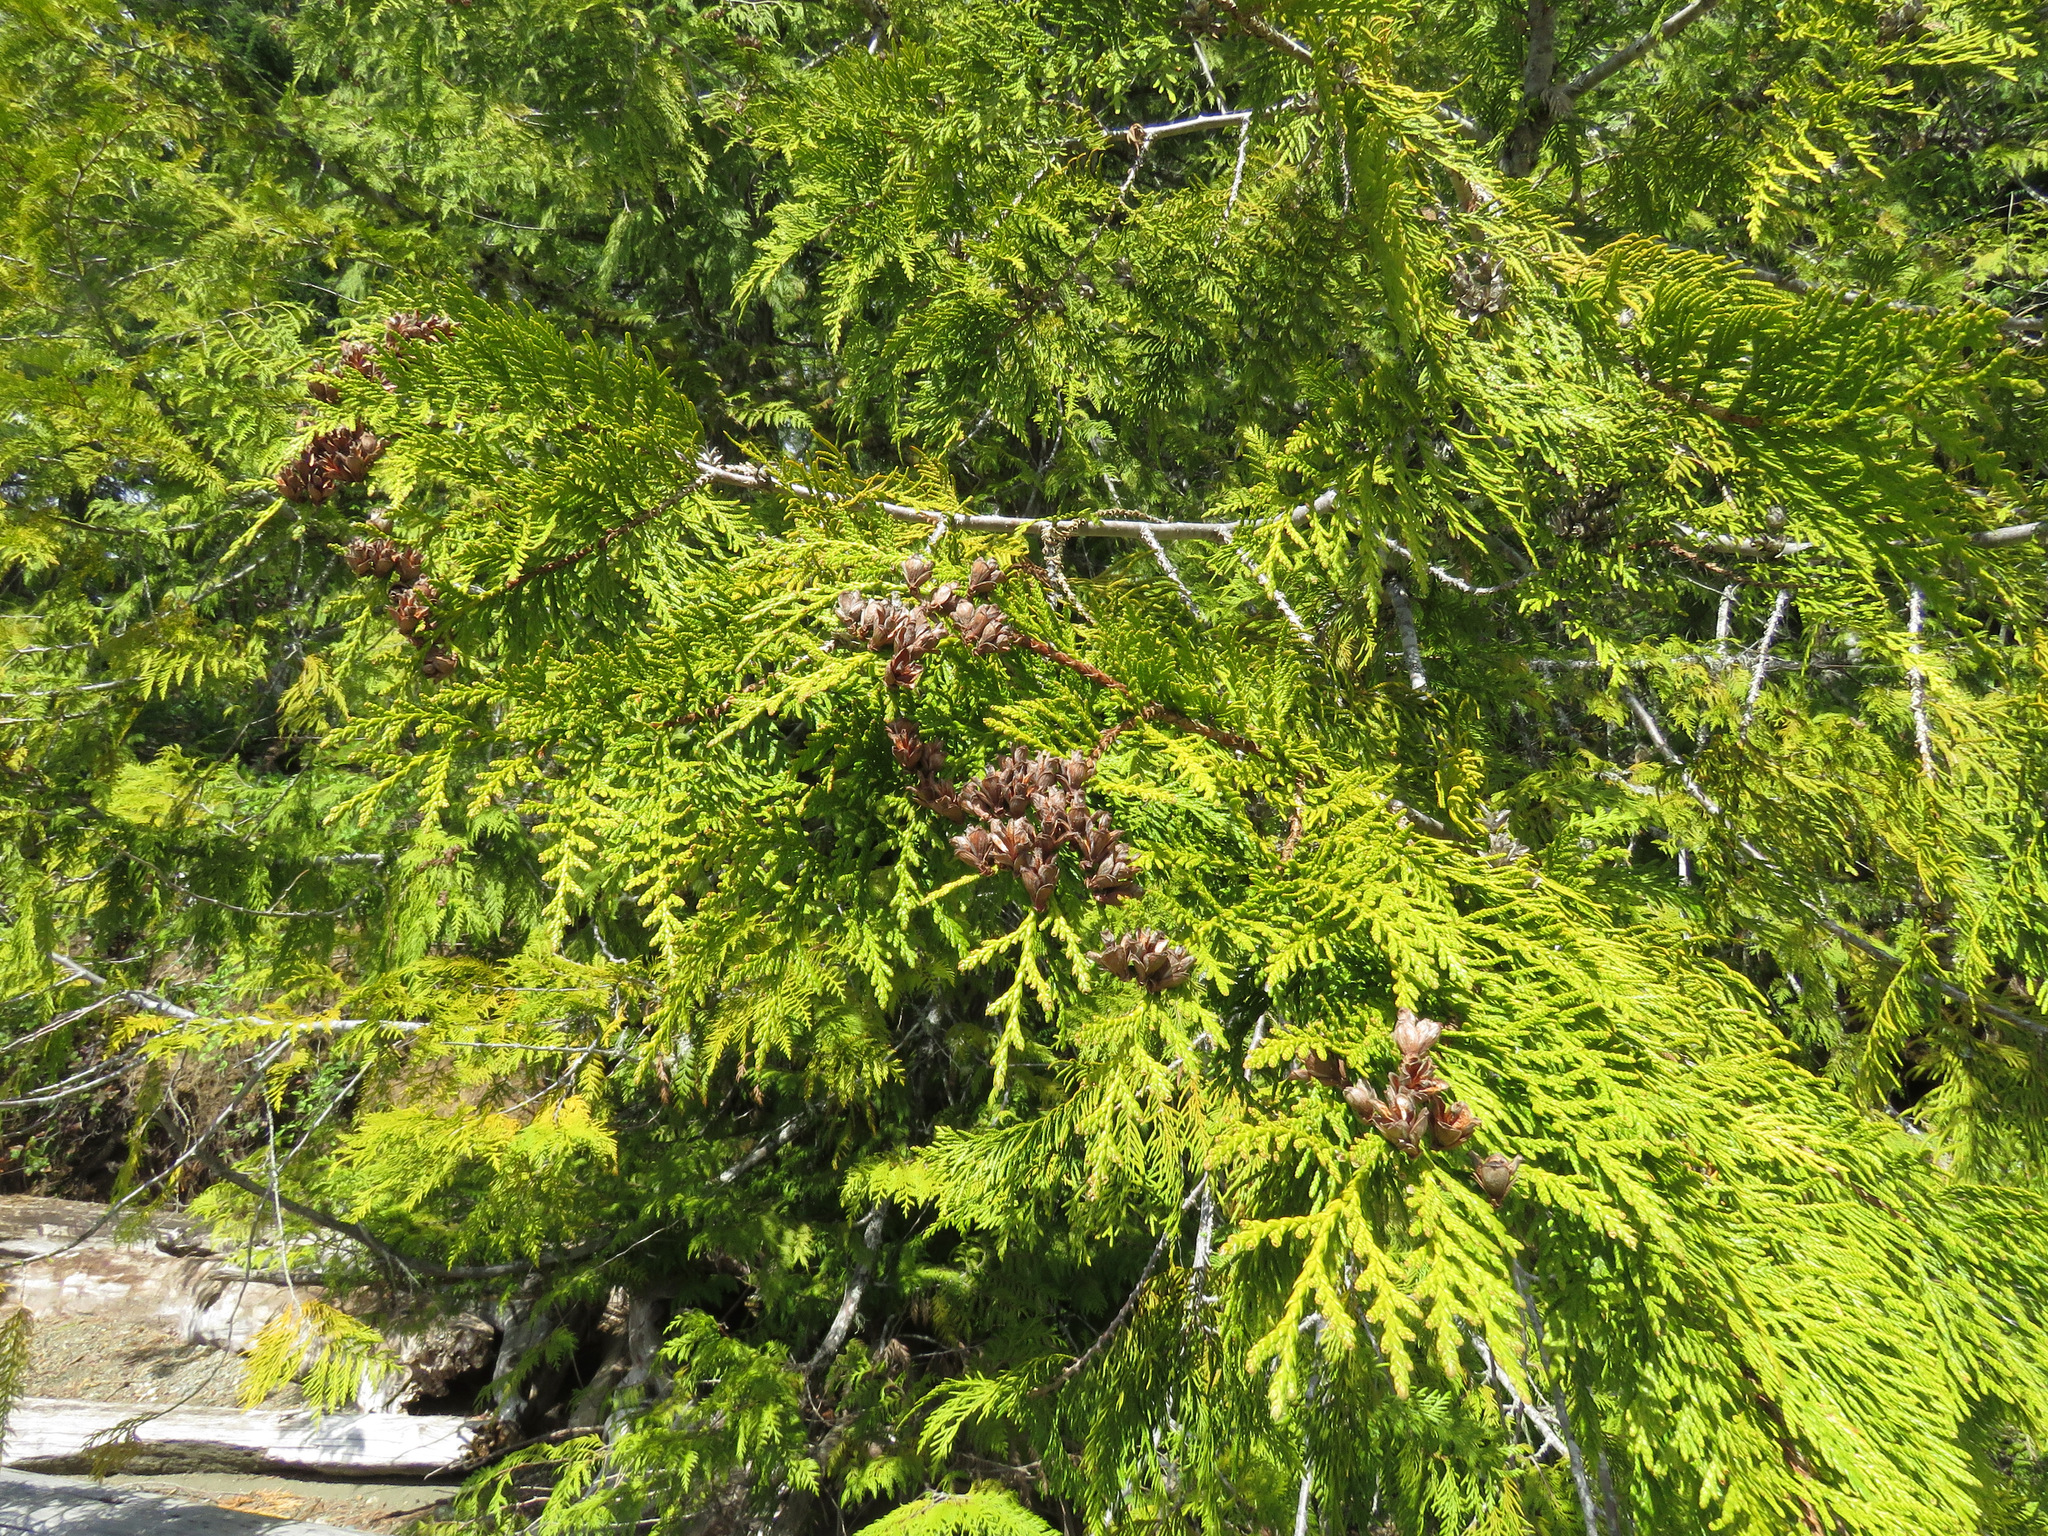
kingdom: Plantae
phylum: Tracheophyta
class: Pinopsida
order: Pinales
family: Cupressaceae
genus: Thuja
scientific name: Thuja plicata
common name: Western red-cedar
